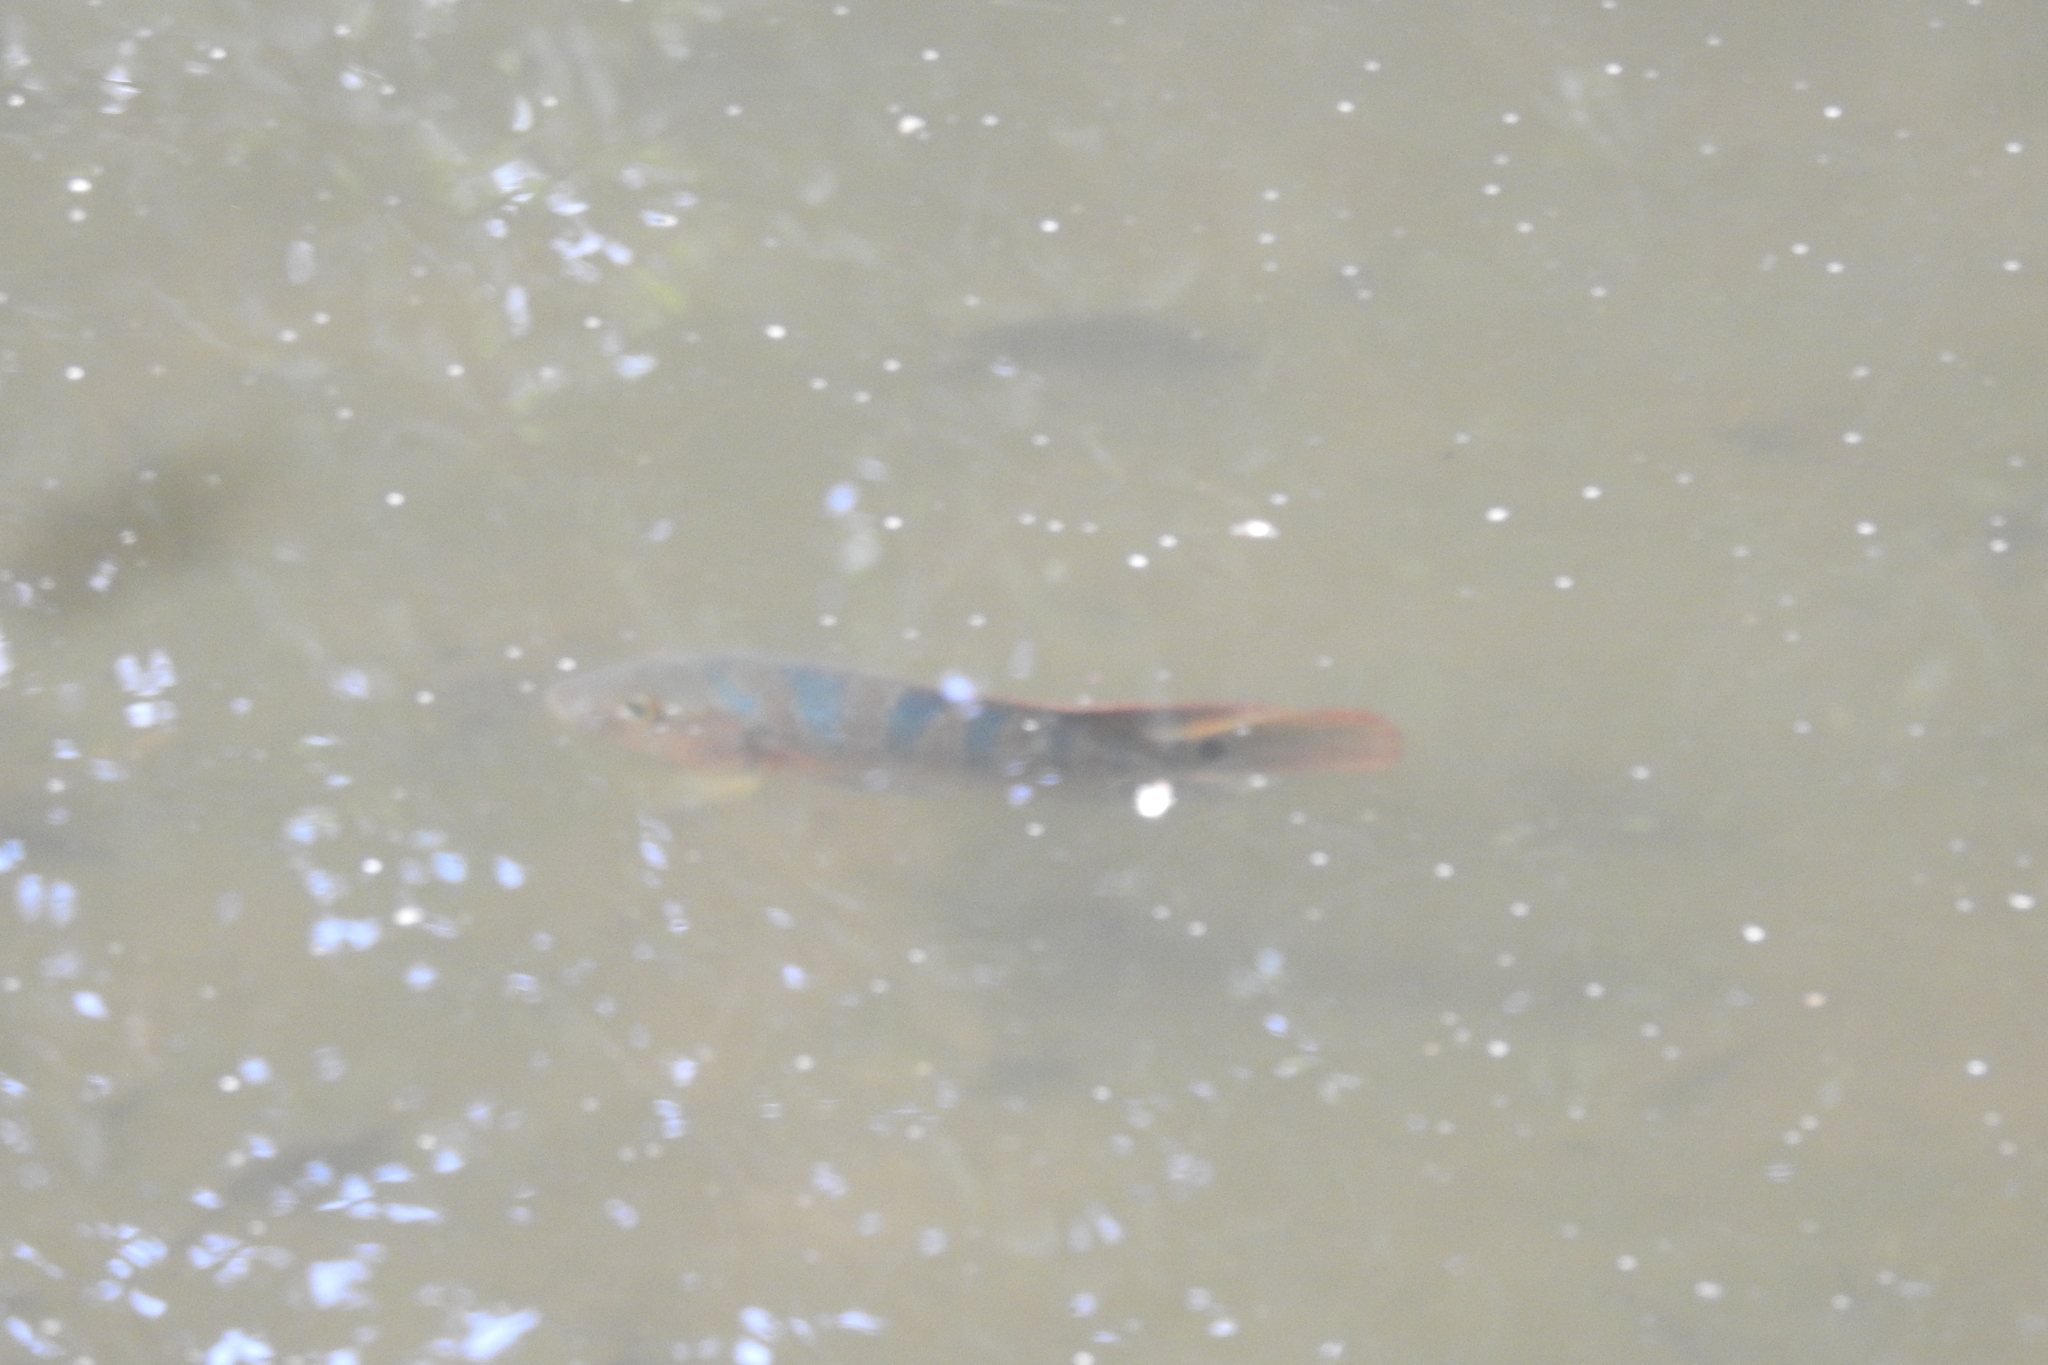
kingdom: Animalia
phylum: Chordata
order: Perciformes
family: Cichlidae
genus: Mayaheros
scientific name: Mayaheros urophthalmus
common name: Mayan cichlid
